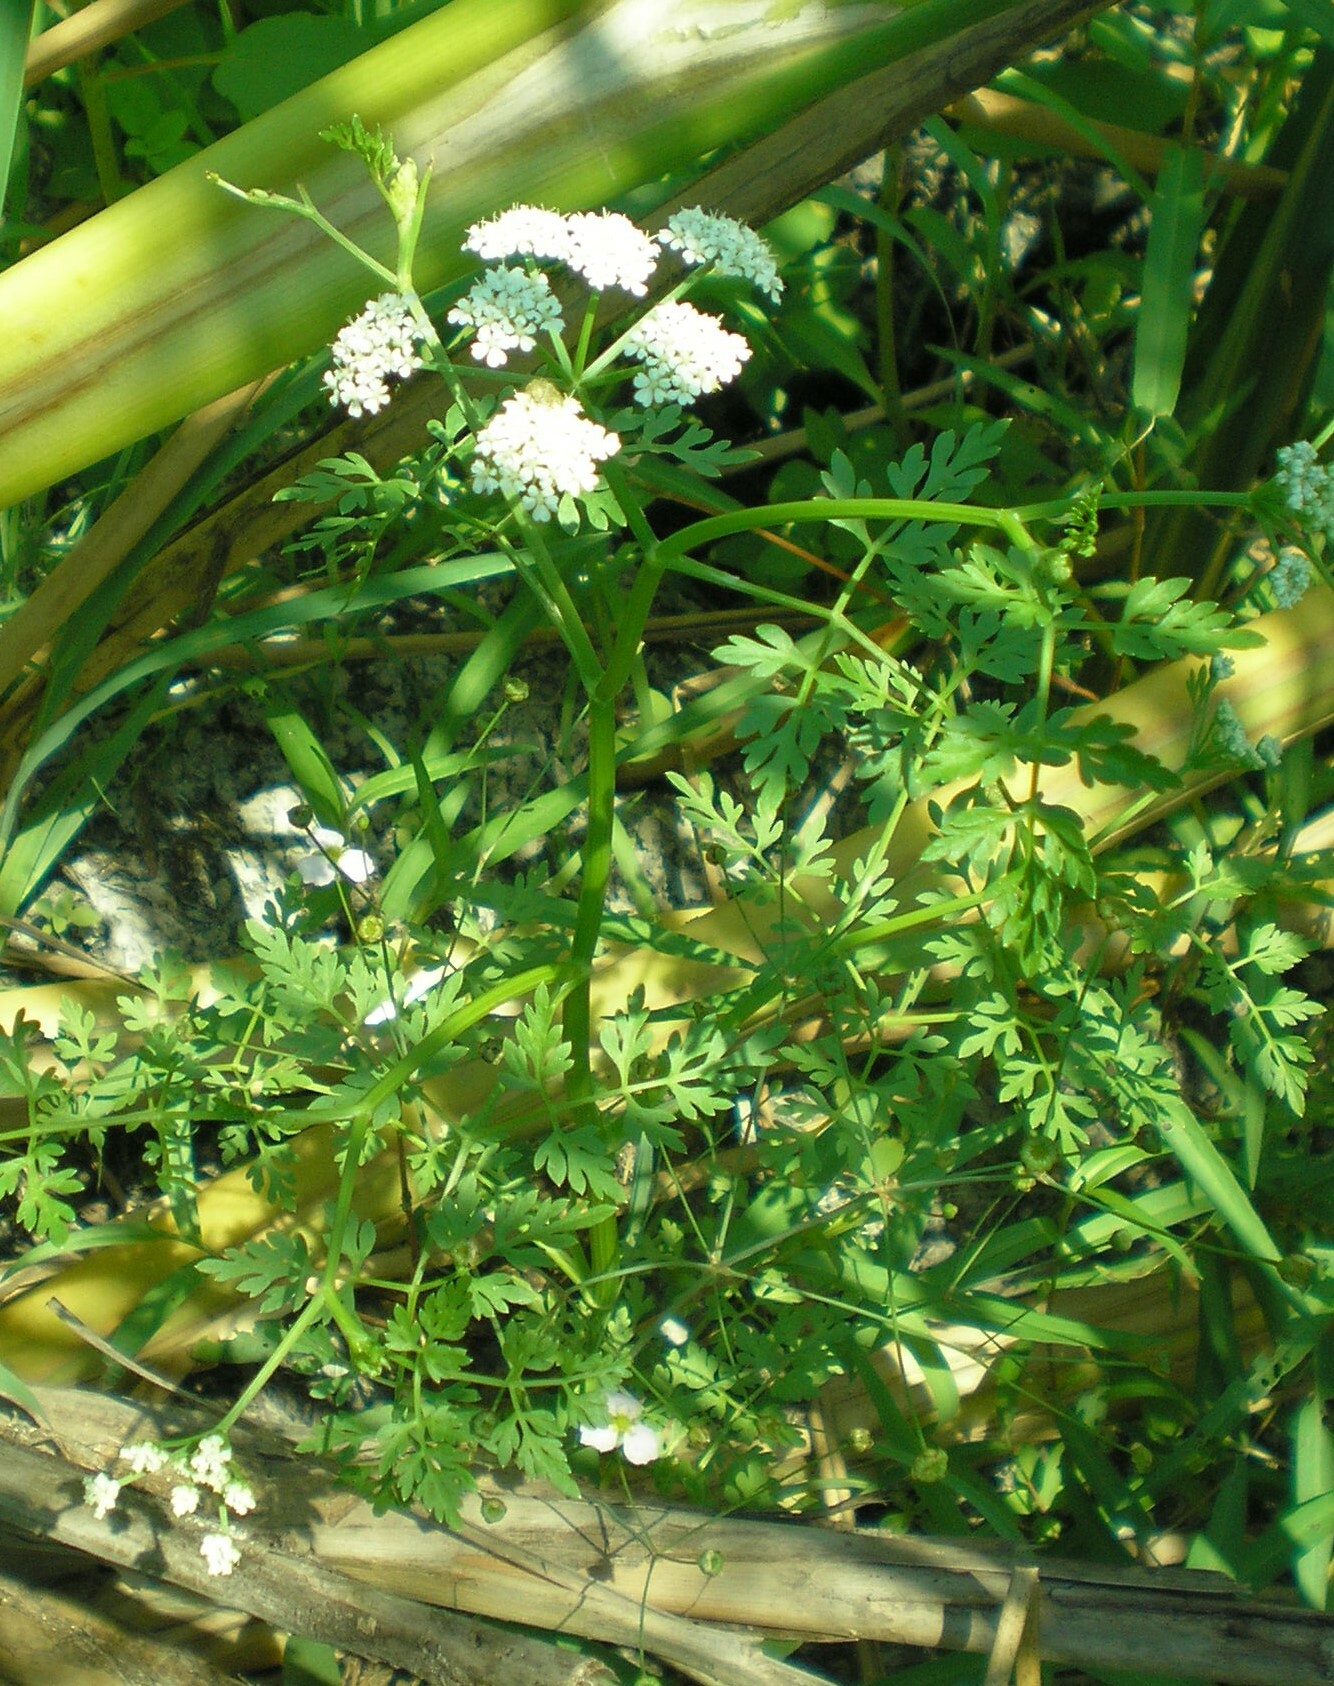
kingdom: Plantae
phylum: Tracheophyta
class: Magnoliopsida
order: Apiales
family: Apiaceae
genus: Oenanthe
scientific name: Oenanthe aquatica
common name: Fine-leaved water-dropwort
